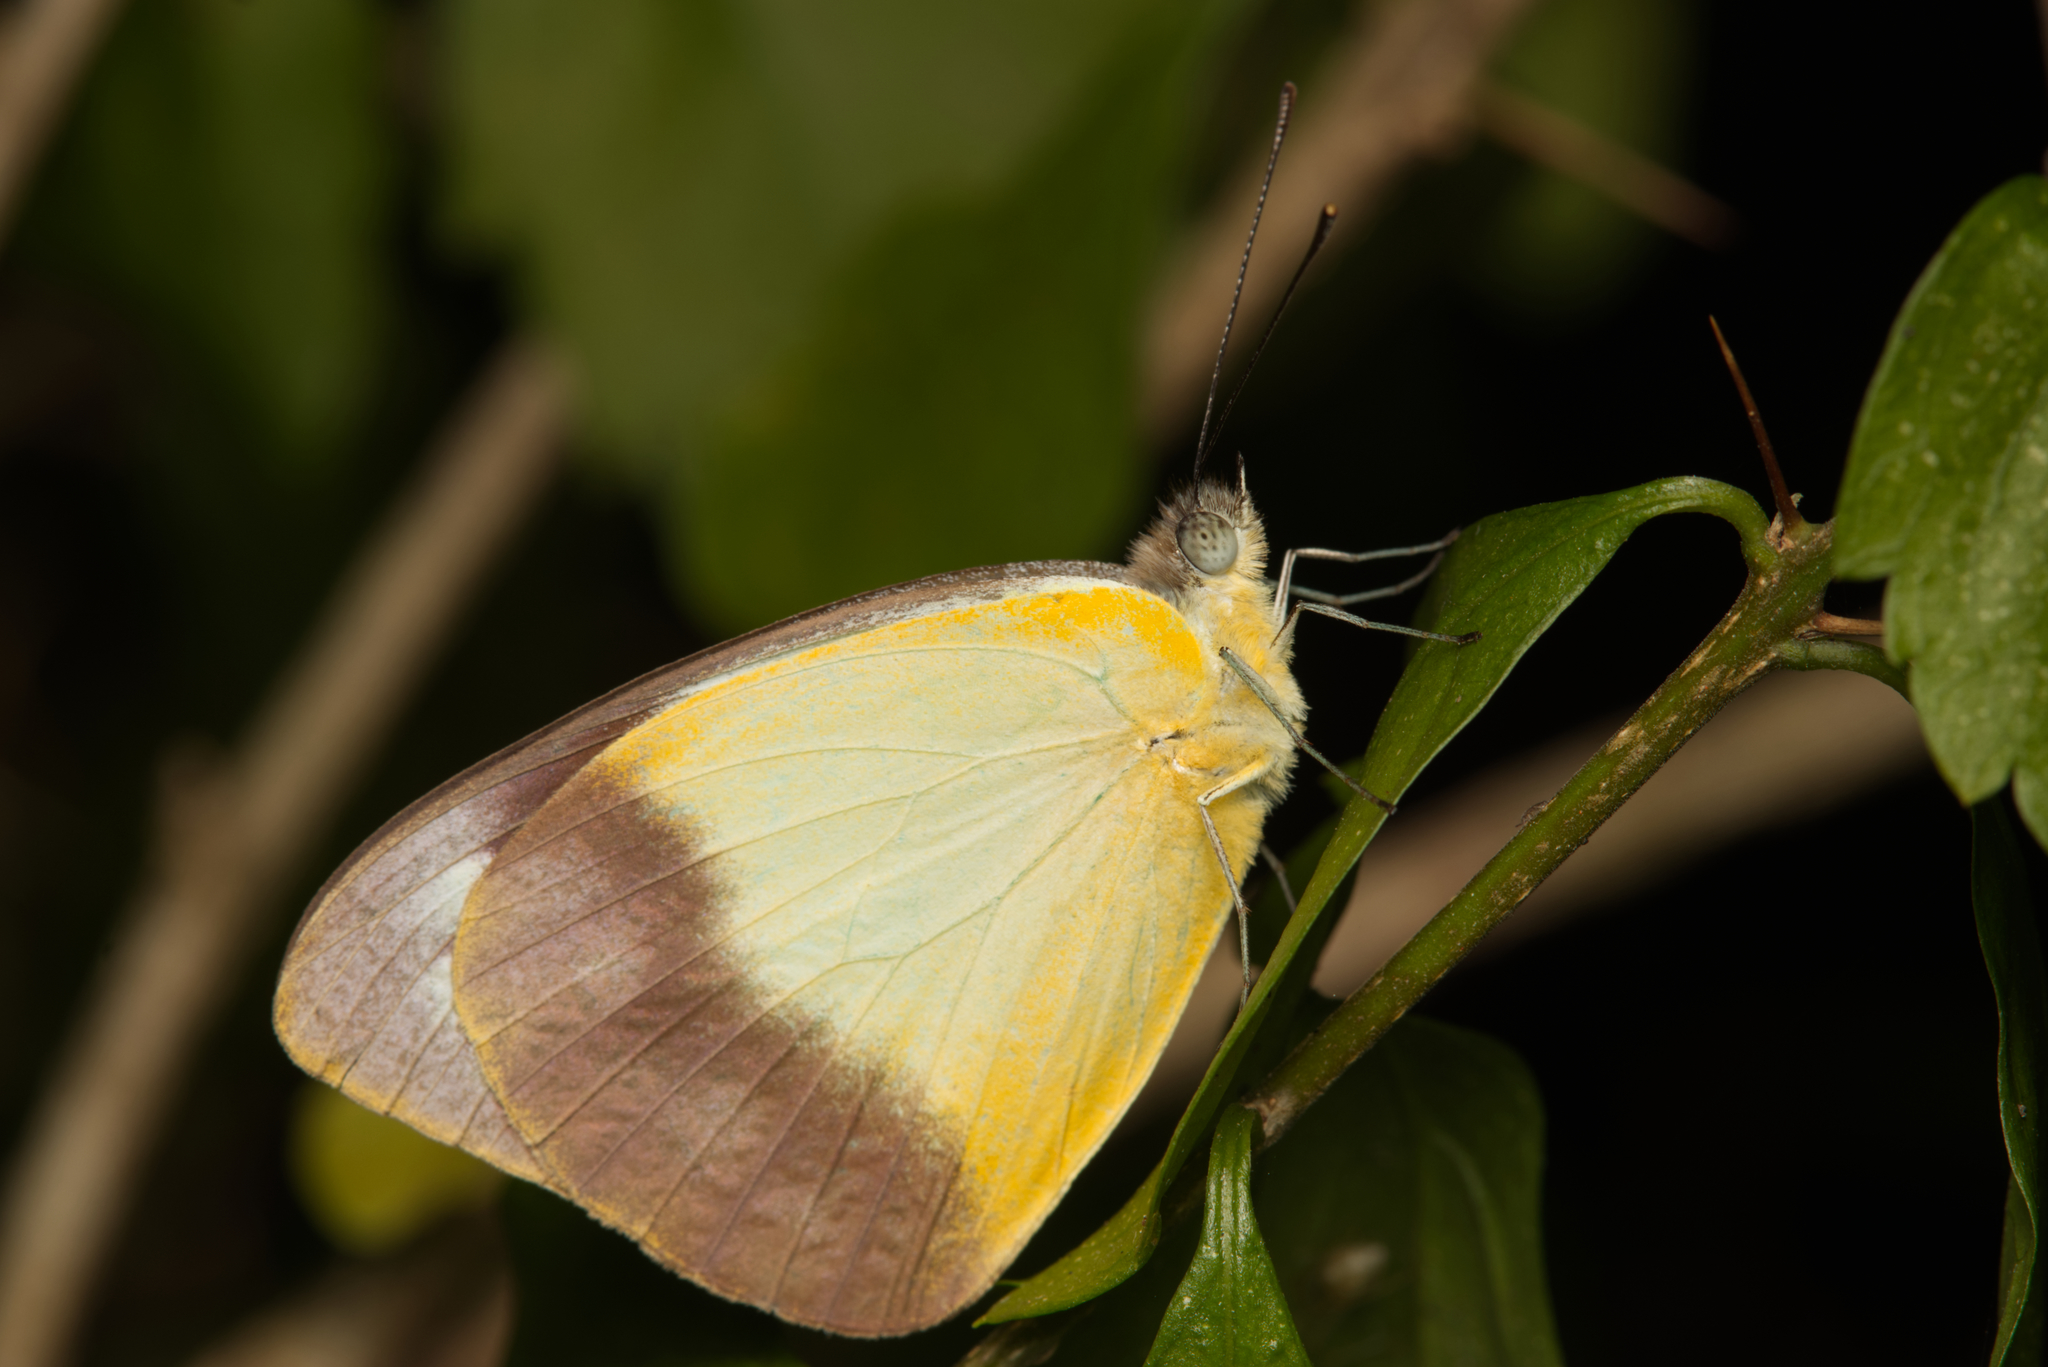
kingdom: Animalia
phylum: Arthropoda
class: Insecta
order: Lepidoptera
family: Pieridae
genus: Appias
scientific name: Appias paulina
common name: Ceylon lesser albatross
